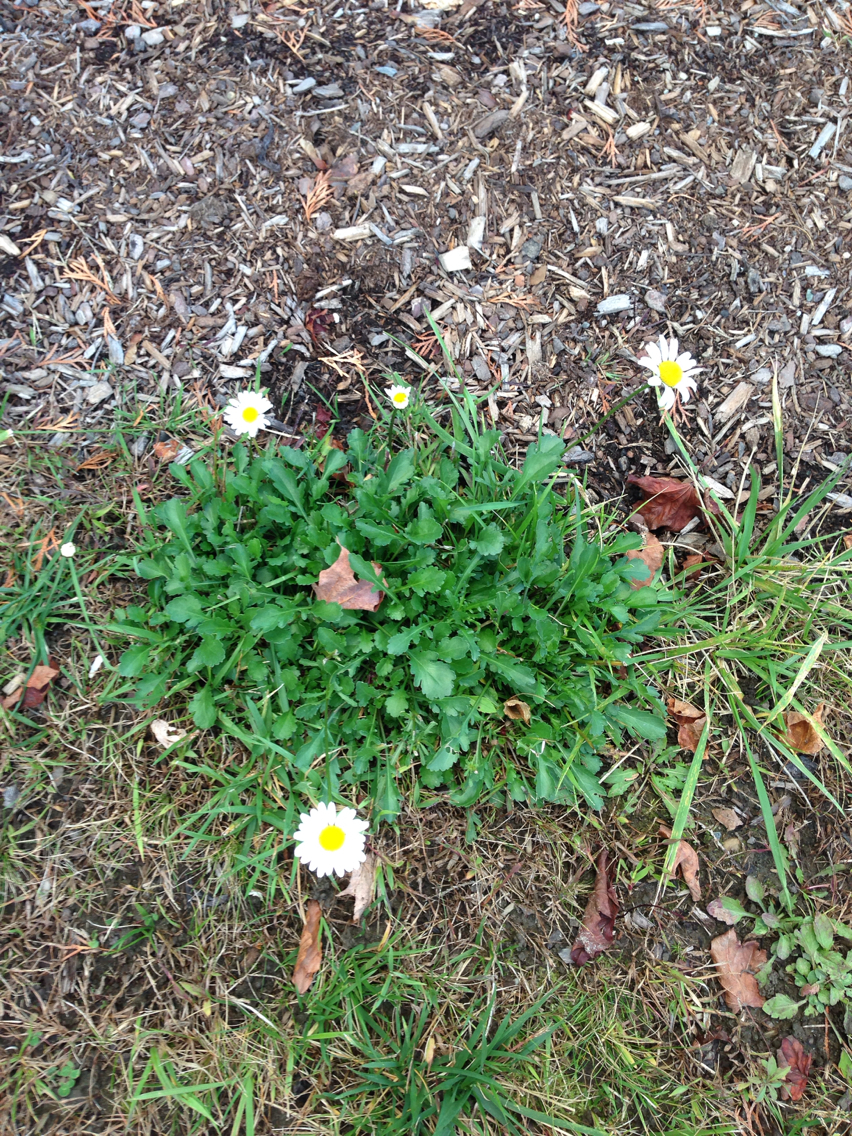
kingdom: Plantae
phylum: Tracheophyta
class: Magnoliopsida
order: Asterales
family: Asteraceae
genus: Leucanthemum
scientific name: Leucanthemum vulgare
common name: Oxeye daisy
